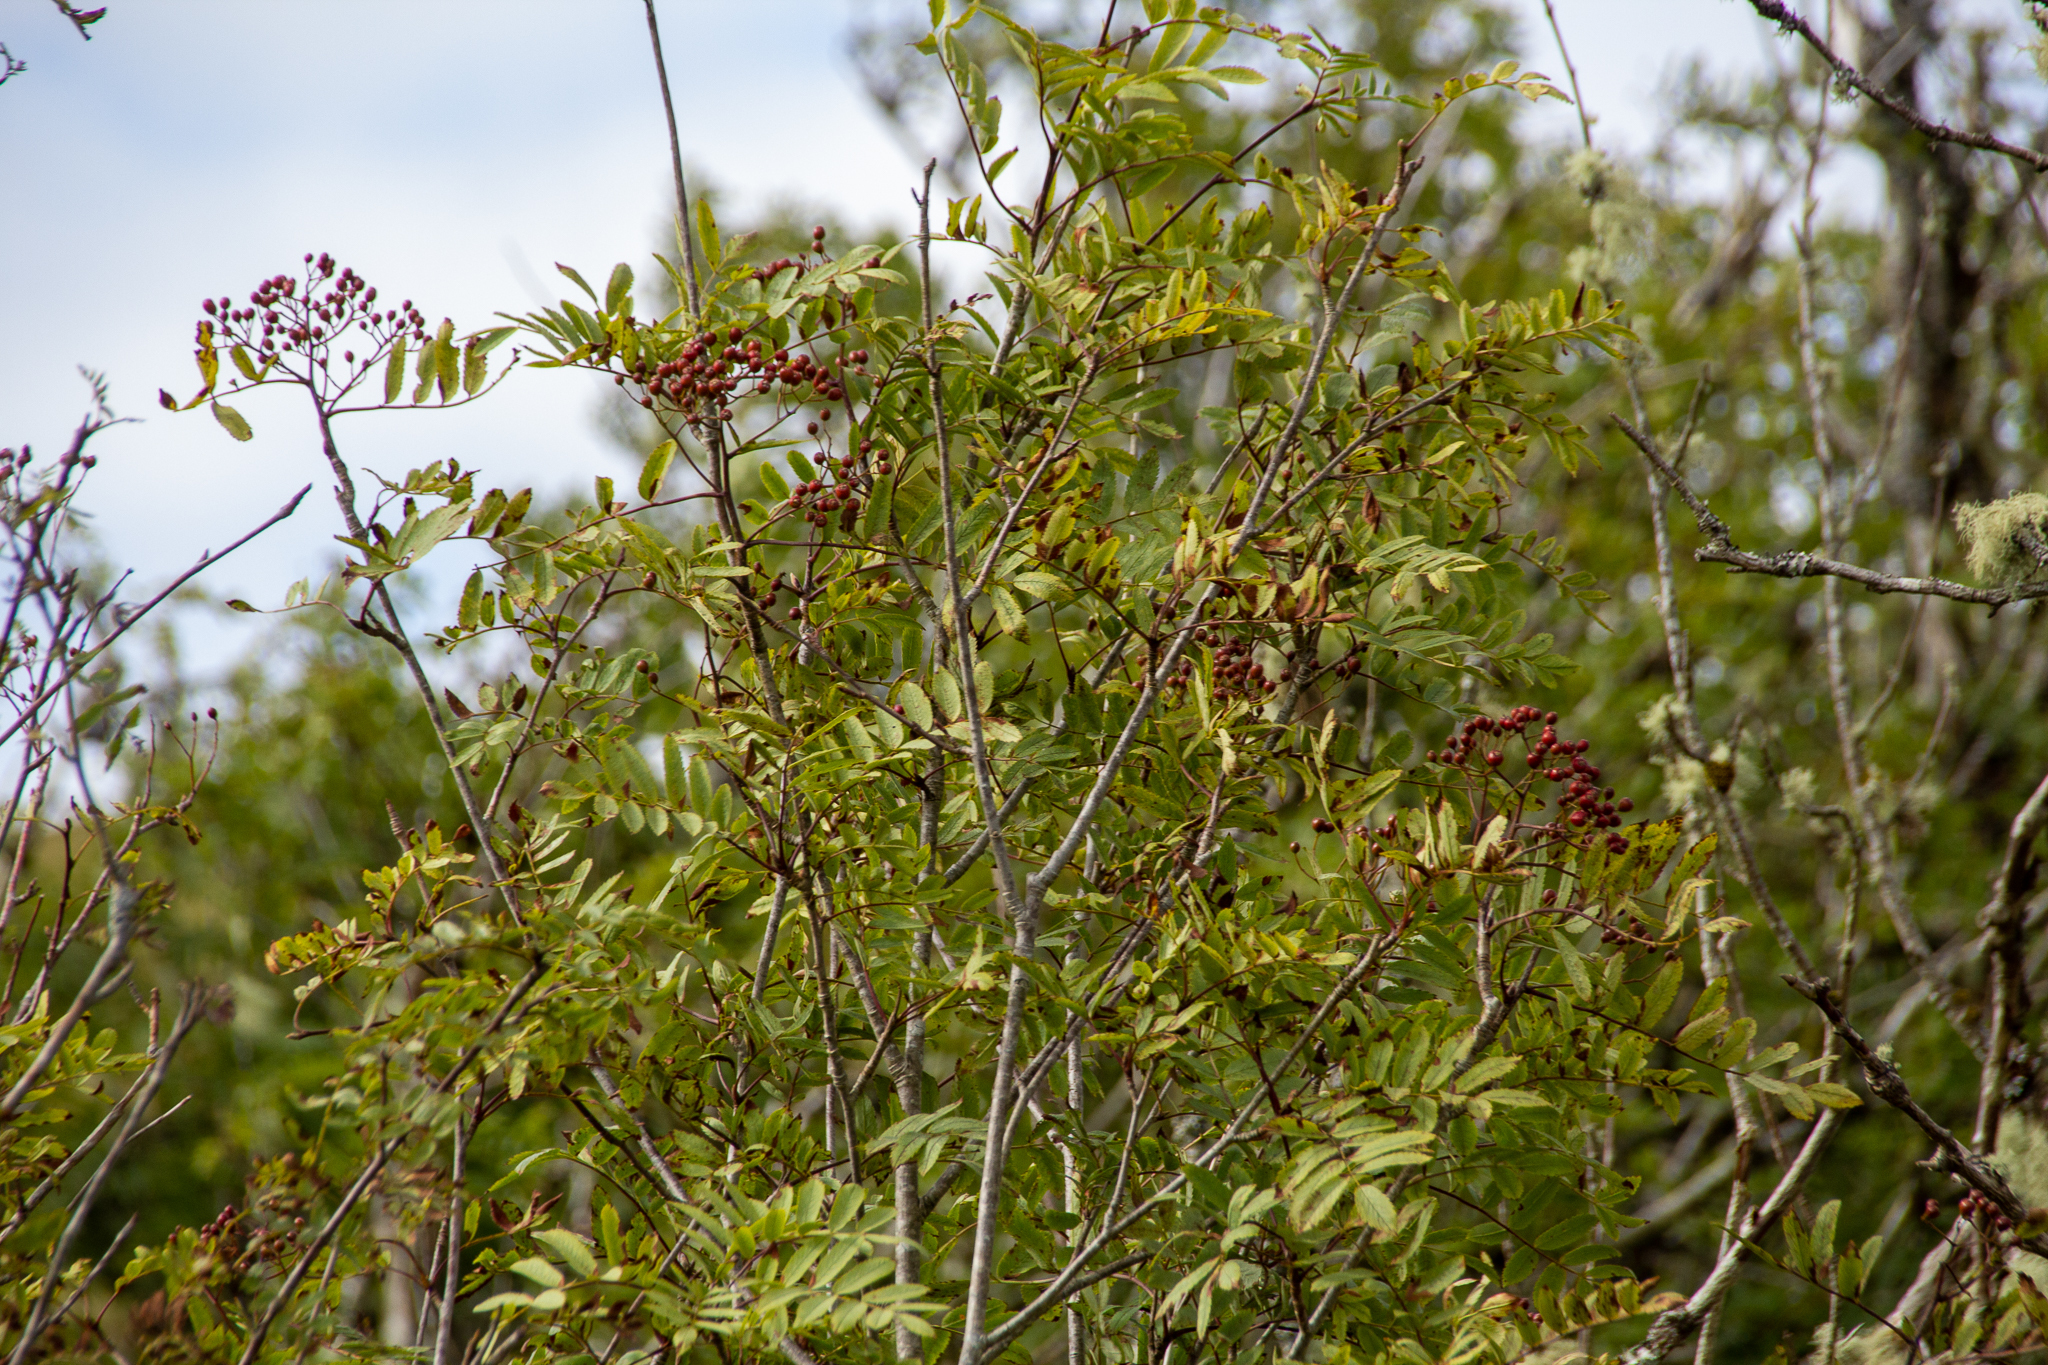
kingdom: Plantae
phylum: Tracheophyta
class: Magnoliopsida
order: Rosales
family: Rosaceae
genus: Sorbus
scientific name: Sorbus aucuparia
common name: Rowan
